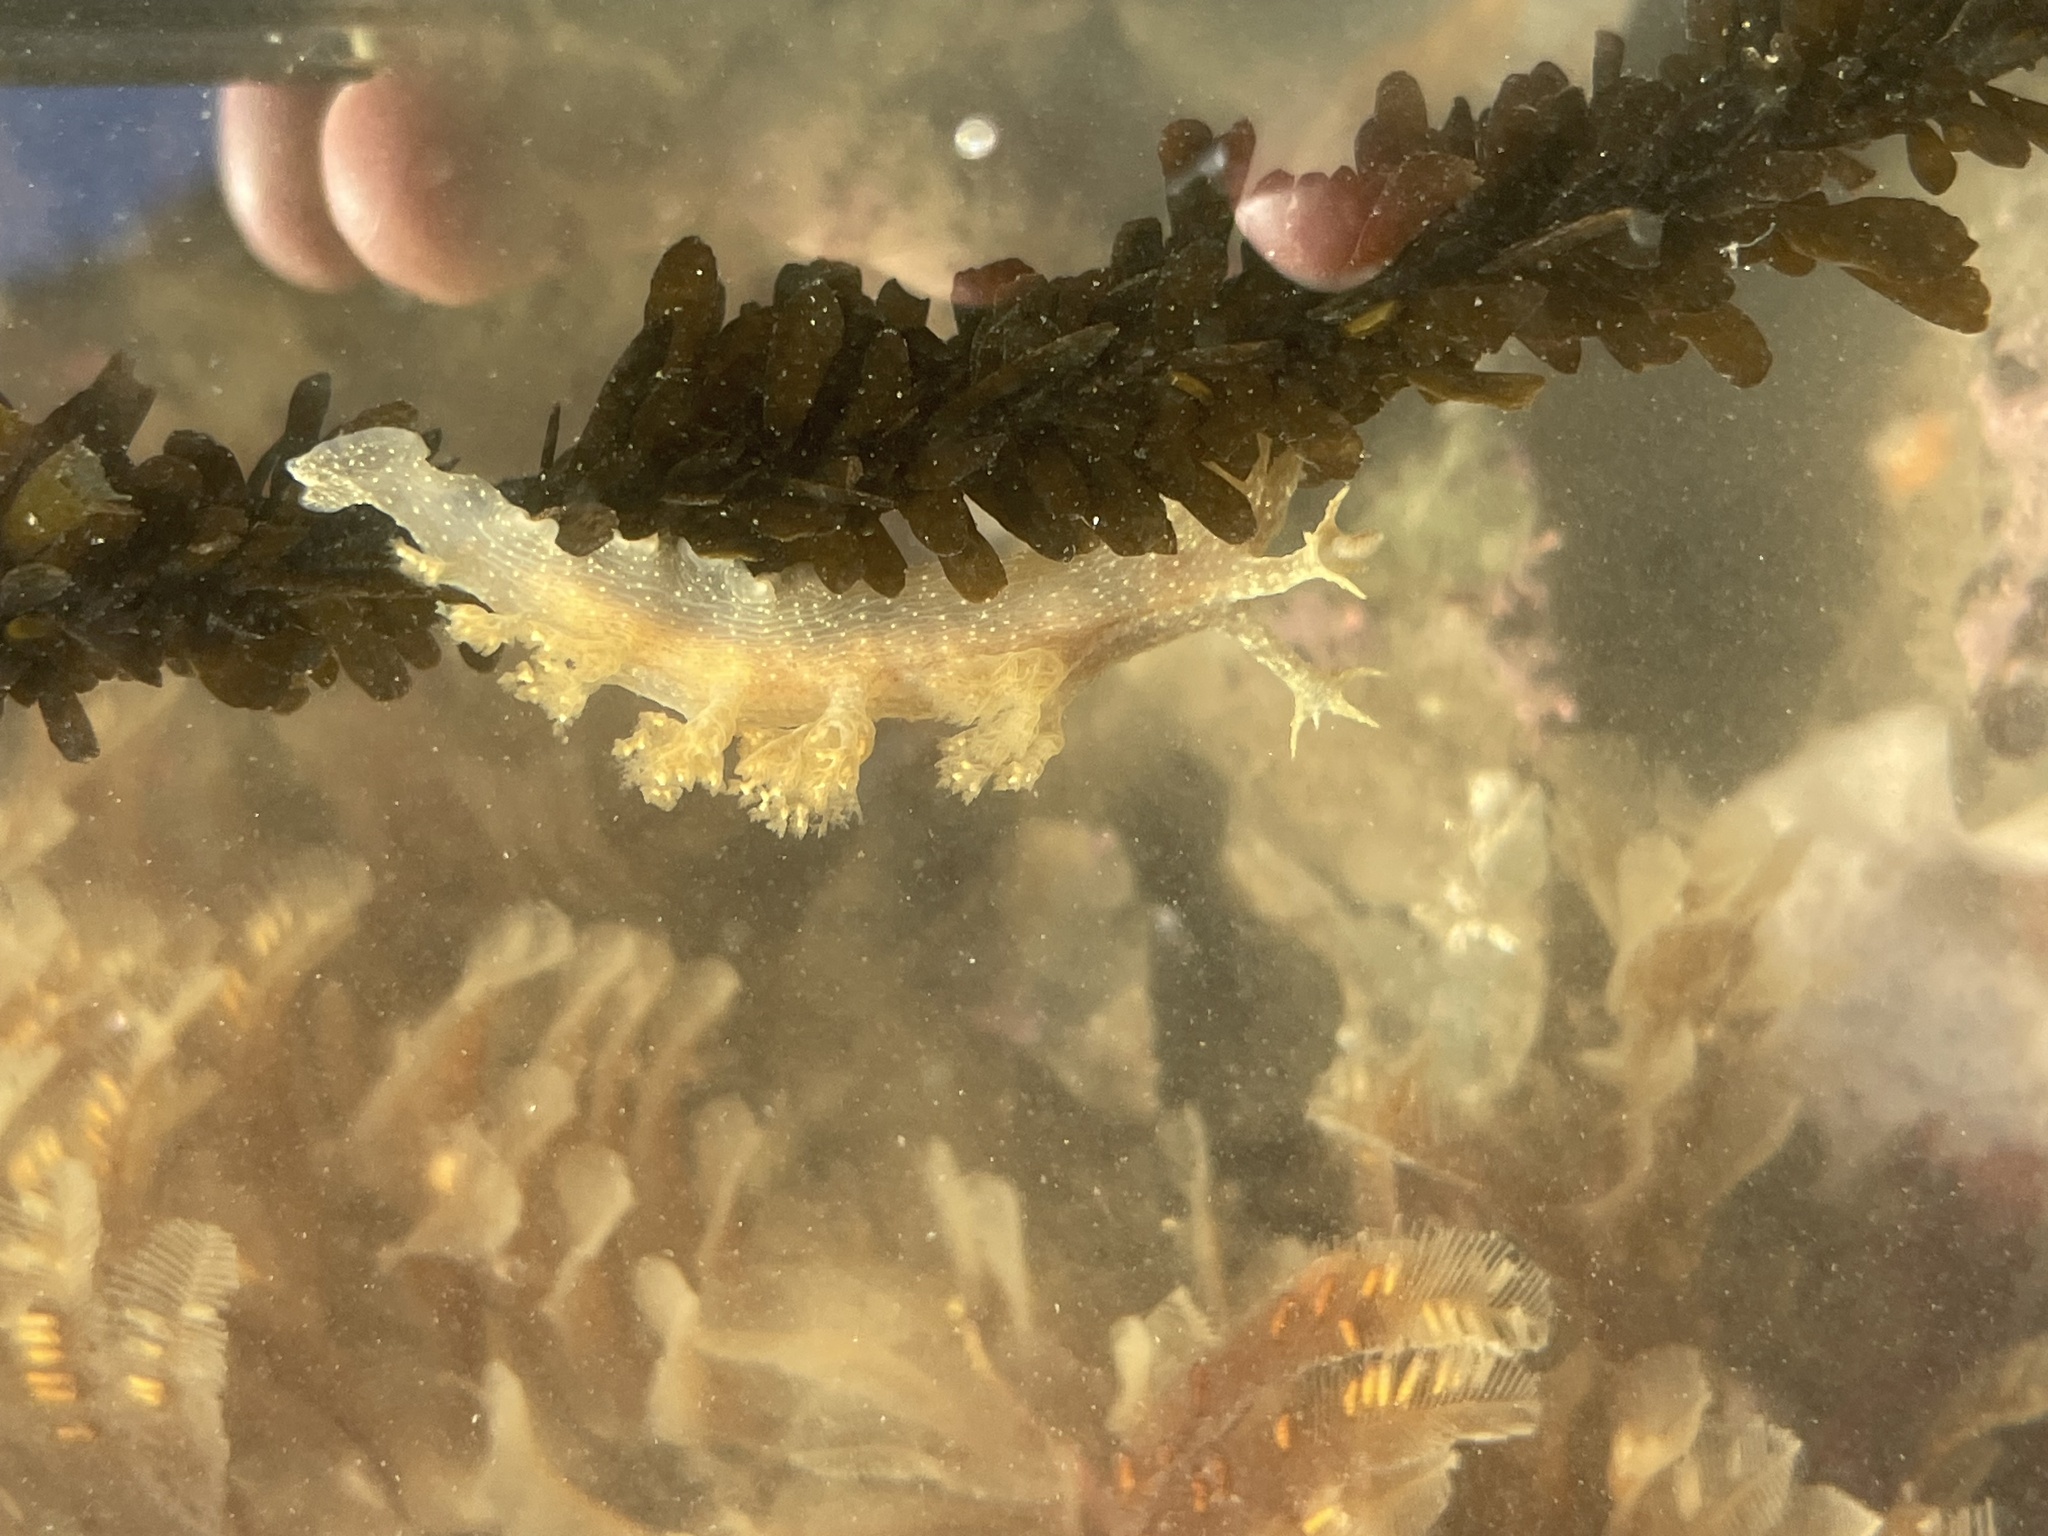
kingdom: Animalia
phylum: Mollusca
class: Gastropoda
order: Nudibranchia
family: Dendronotidae
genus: Dendronotus
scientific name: Dendronotus subramosus
